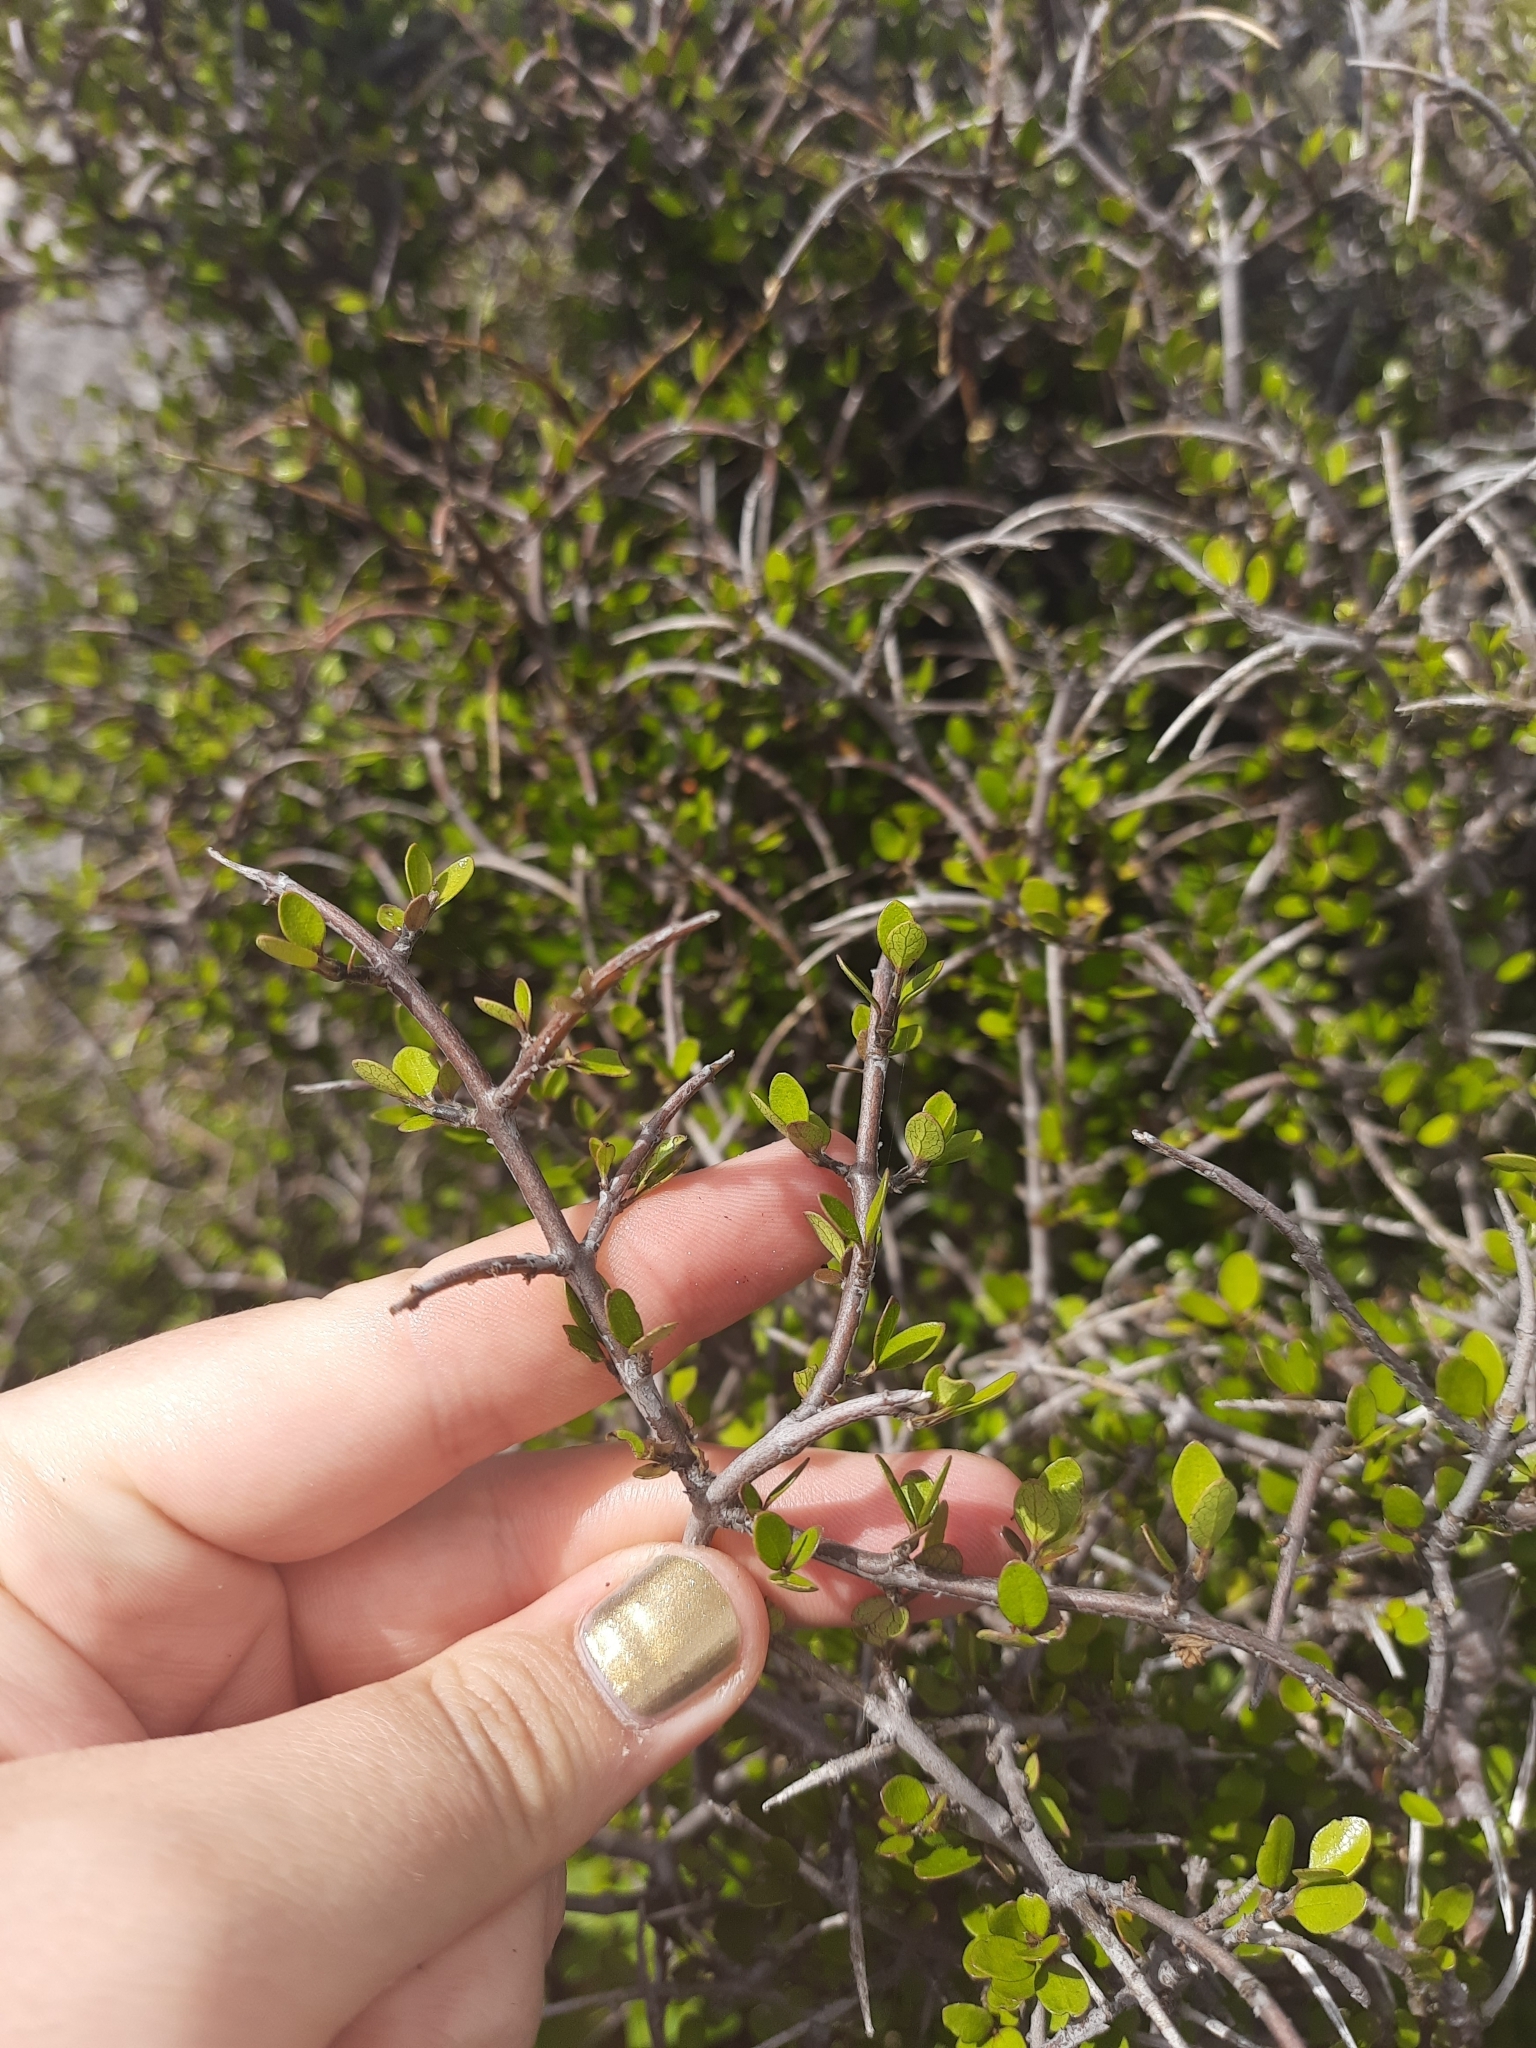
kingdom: Plantae
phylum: Tracheophyta
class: Magnoliopsida
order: Oxalidales
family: Elaeocarpaceae
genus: Aristotelia
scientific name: Aristotelia fruticosa
